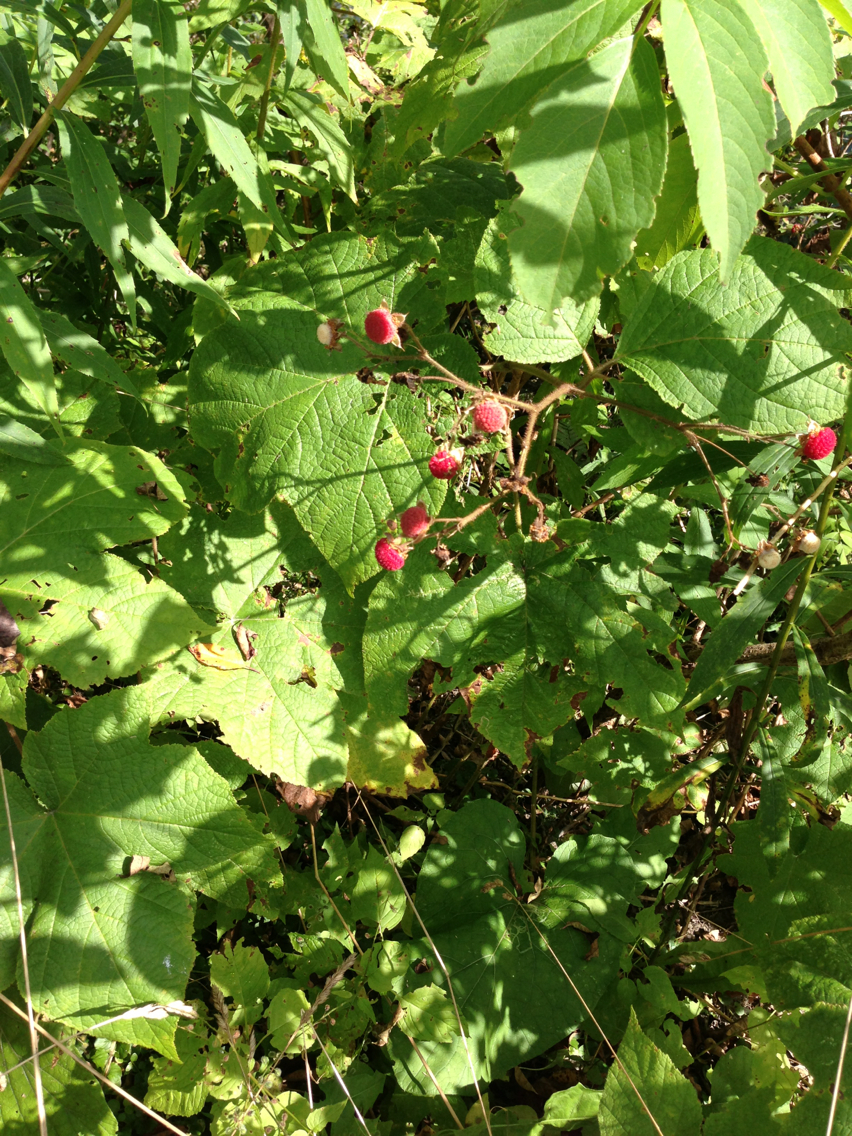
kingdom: Plantae
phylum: Tracheophyta
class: Magnoliopsida
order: Rosales
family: Rosaceae
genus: Rubus
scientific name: Rubus odoratus
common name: Purple-flowered raspberry
